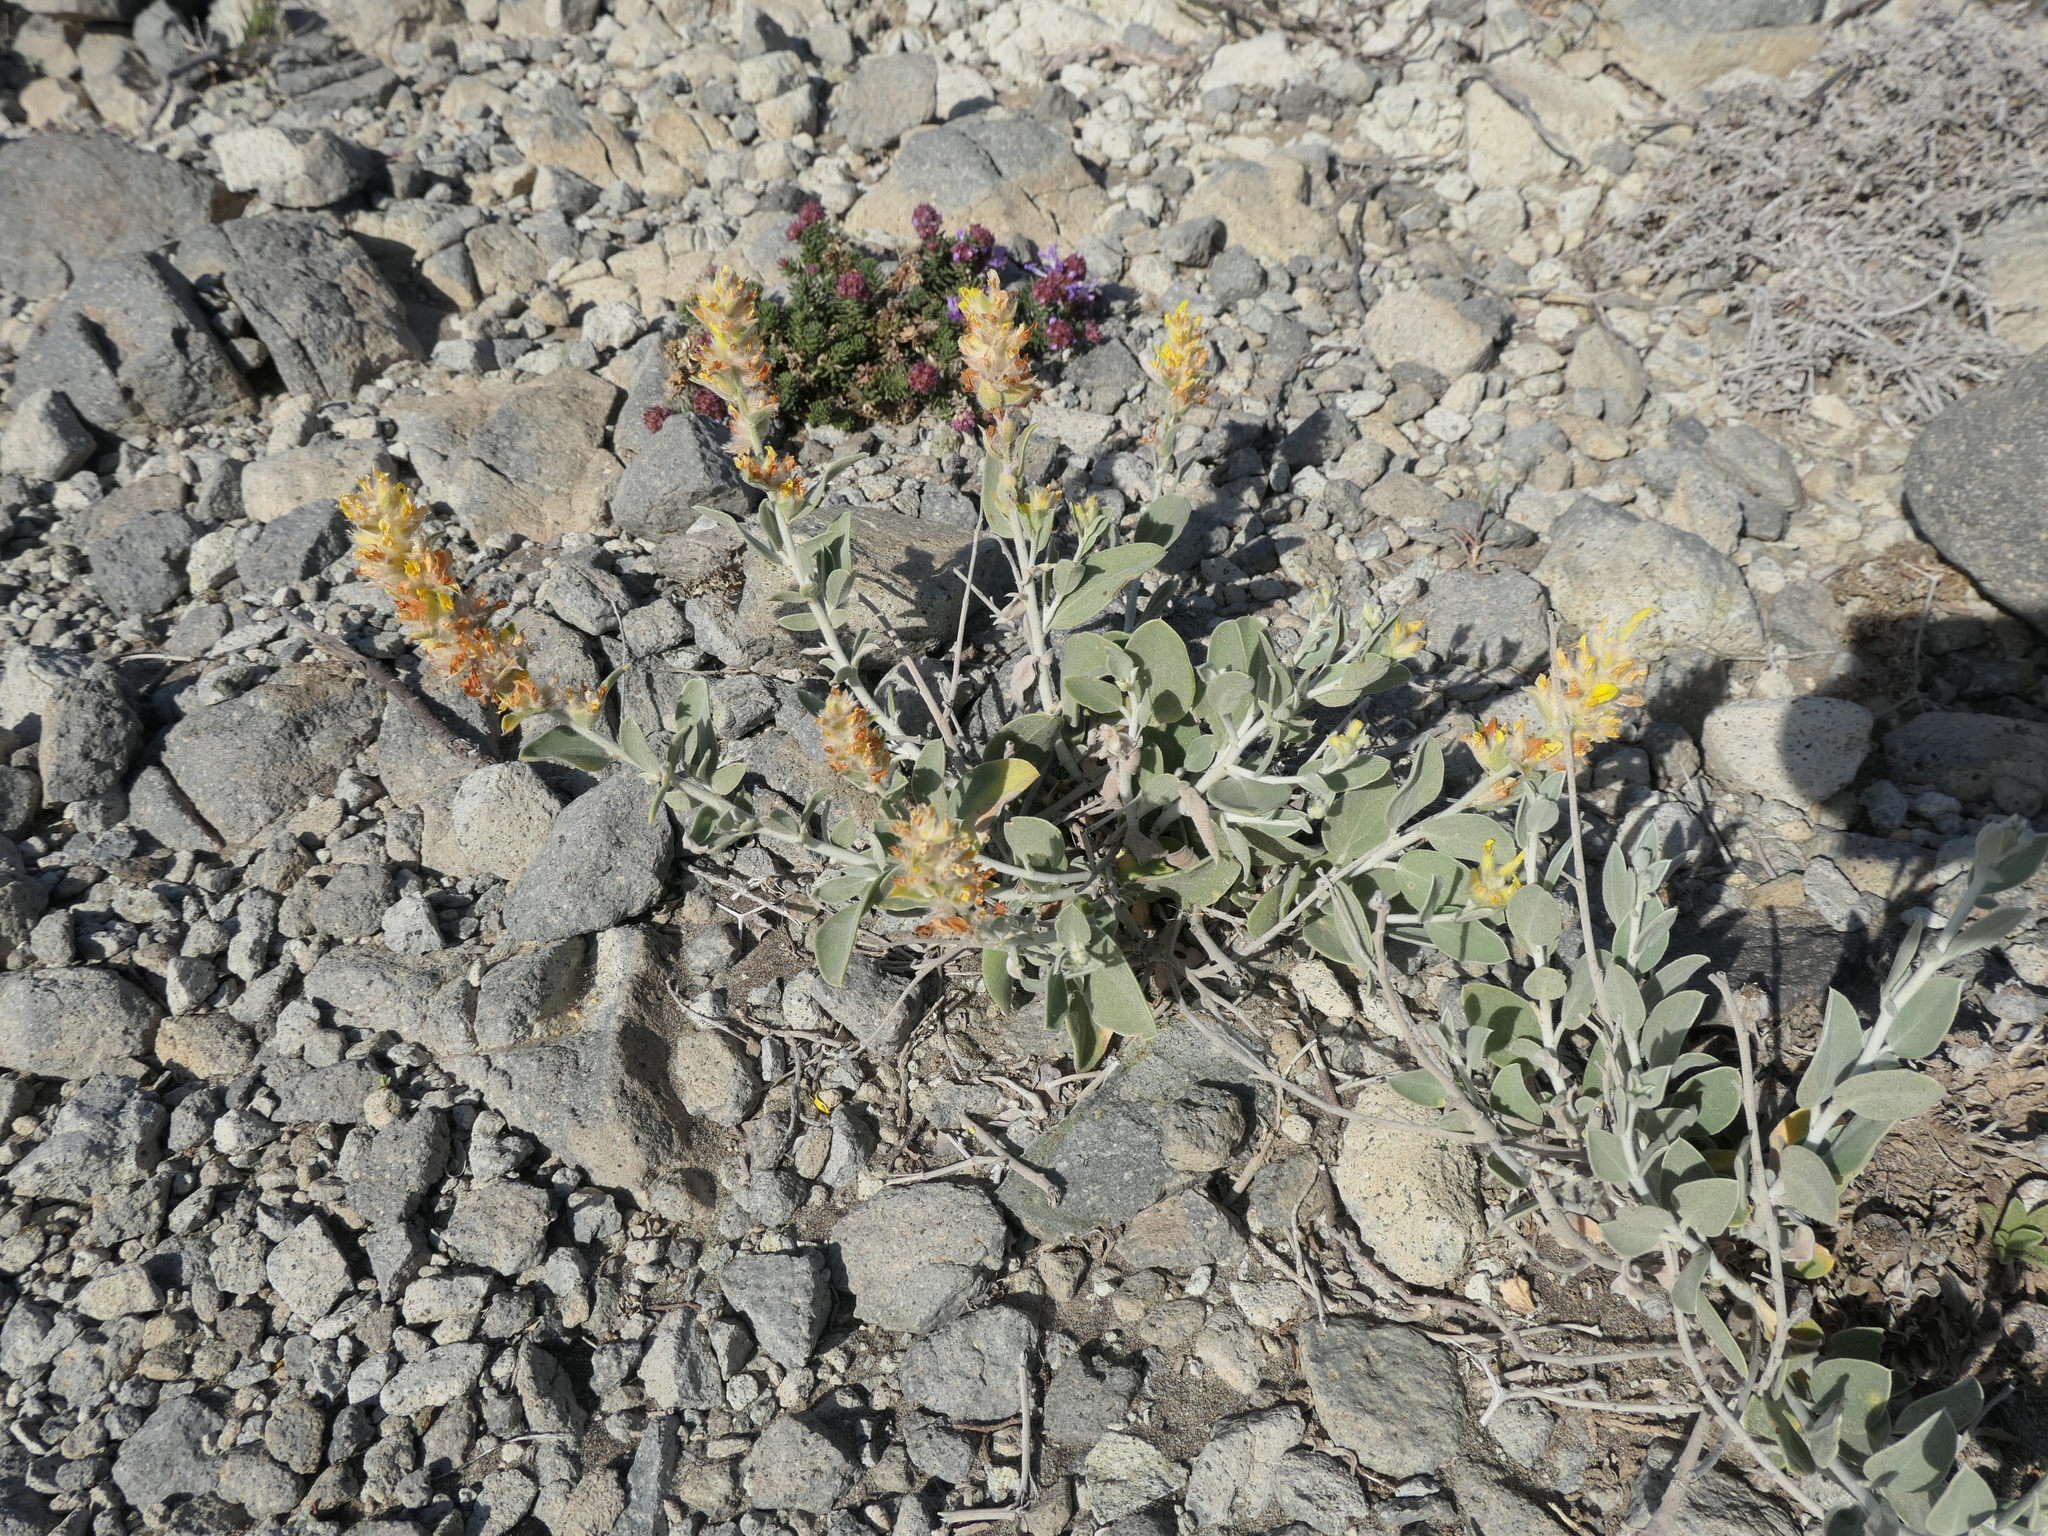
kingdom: Plantae
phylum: Tracheophyta
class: Magnoliopsida
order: Fabales
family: Fabaceae
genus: Anthyllis
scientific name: Anthyllis cytisoides
